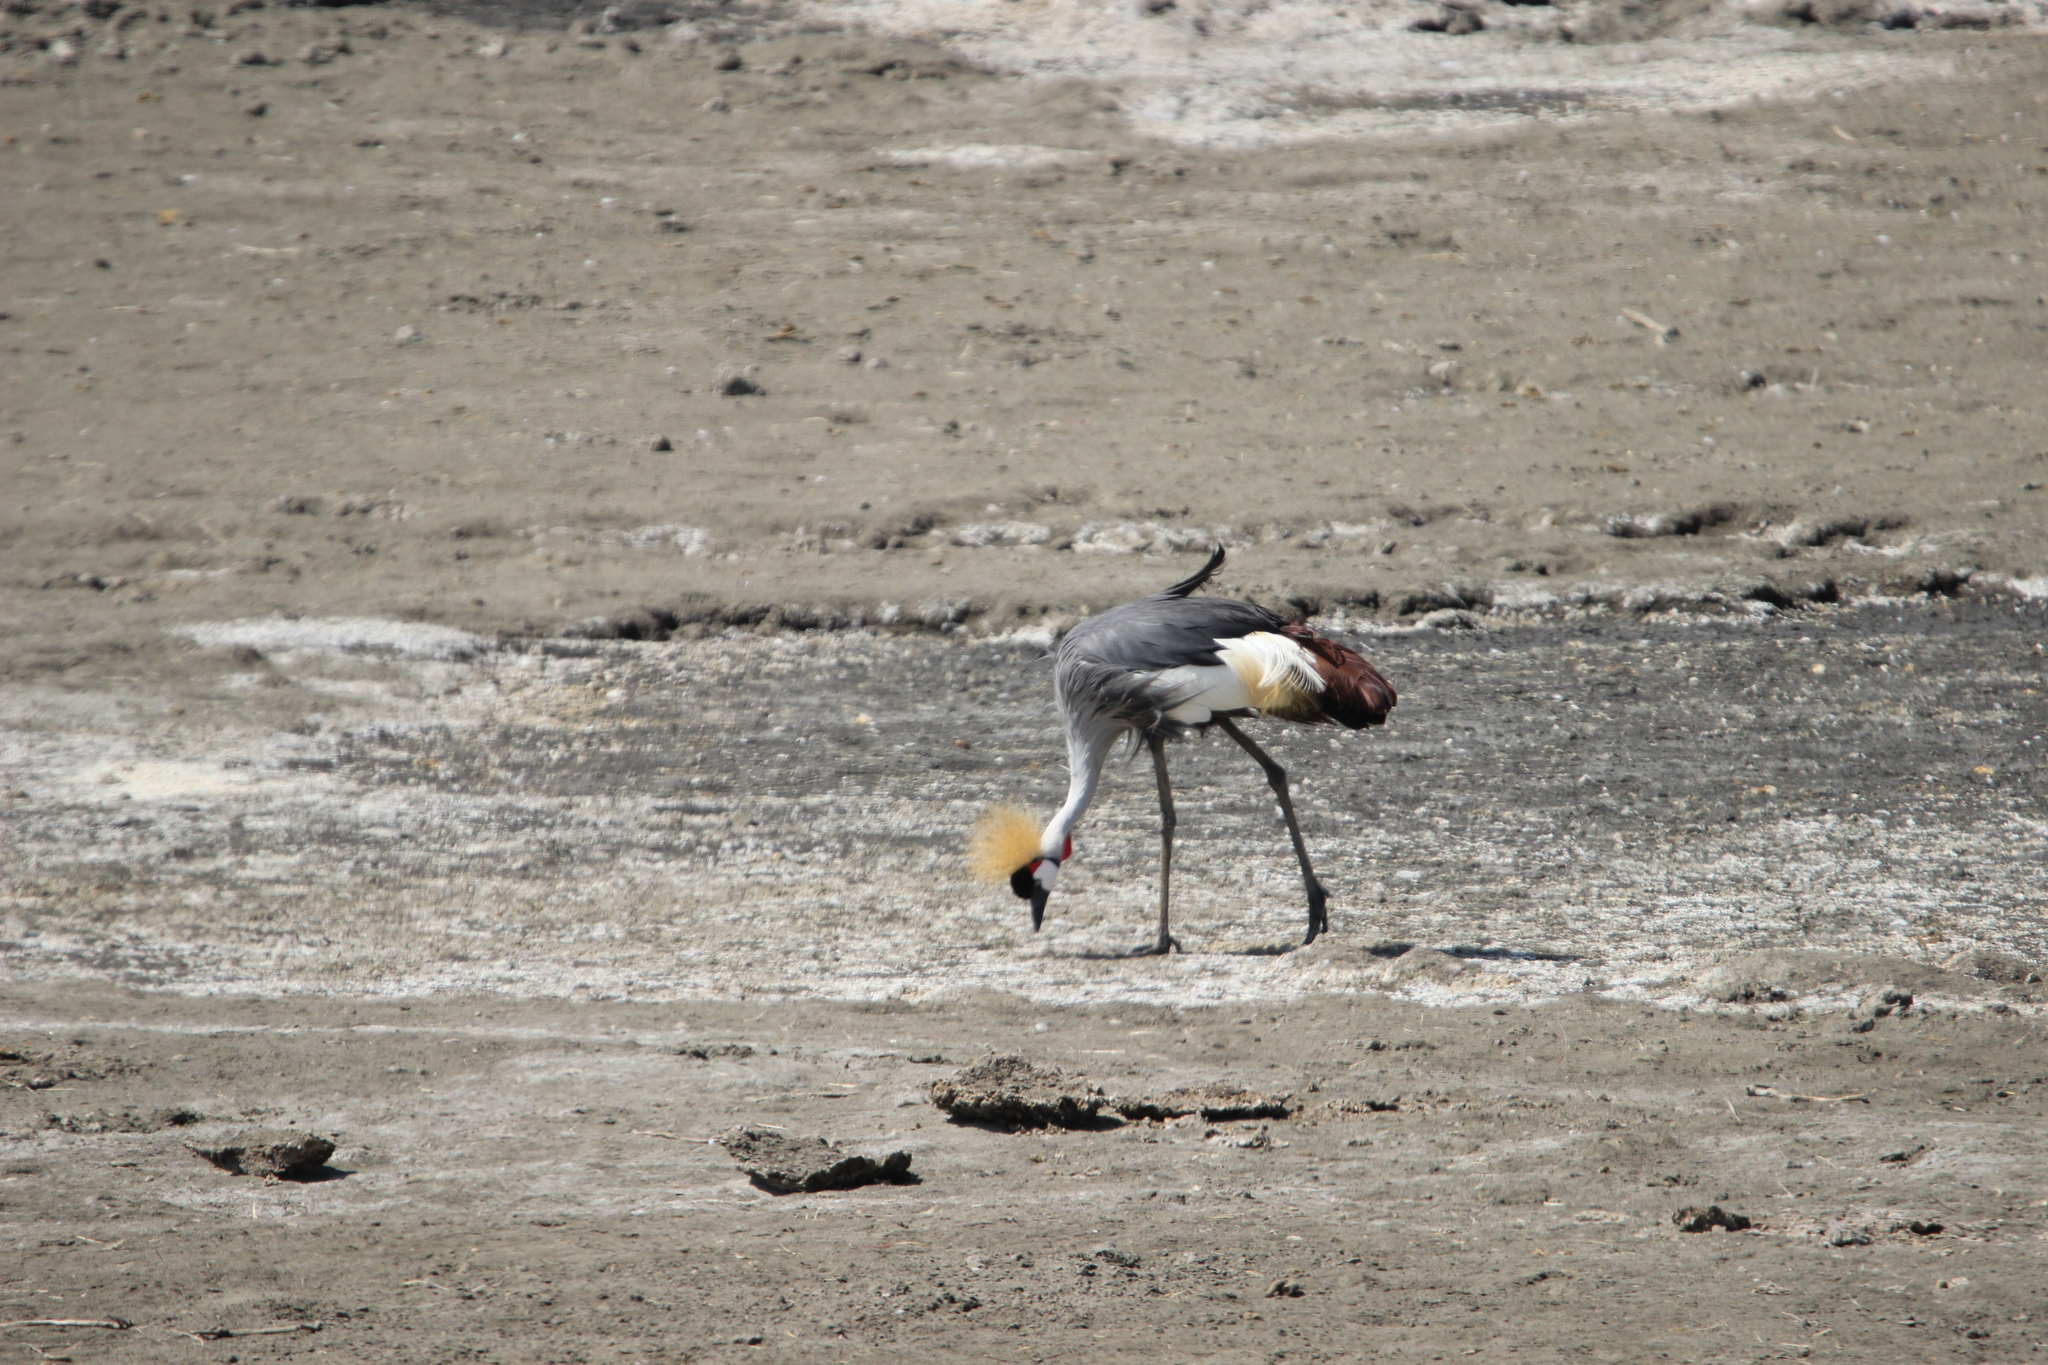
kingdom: Animalia
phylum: Chordata
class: Aves
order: Gruiformes
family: Gruidae
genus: Balearica
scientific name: Balearica regulorum
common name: Grey crowned crane
